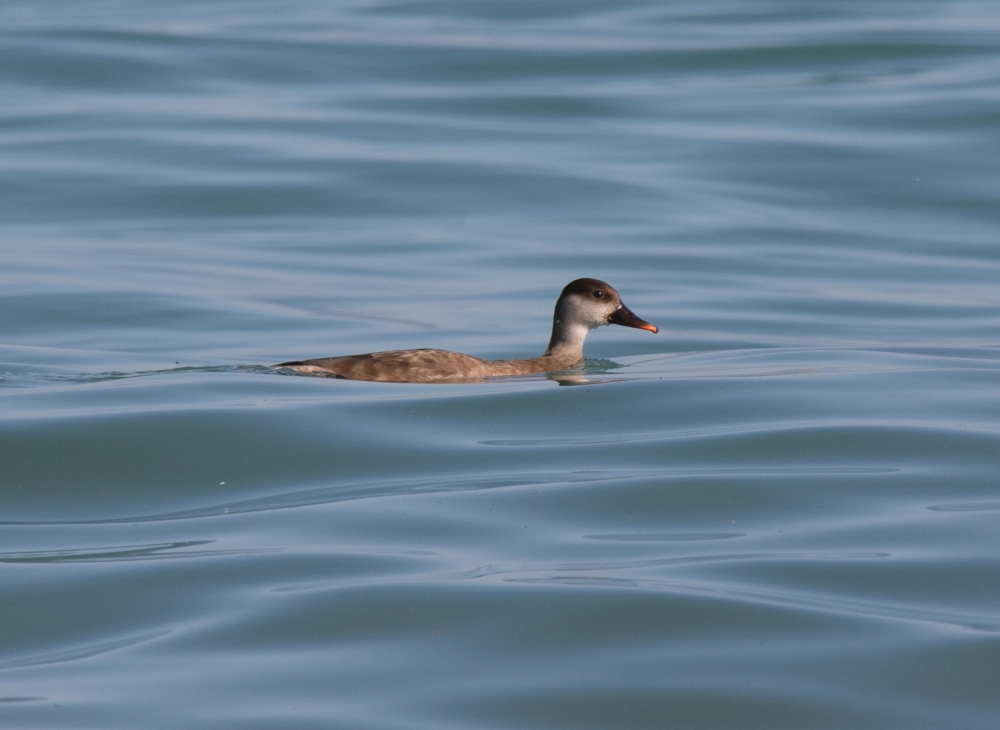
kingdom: Animalia
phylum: Chordata
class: Aves
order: Anseriformes
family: Anatidae
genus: Netta
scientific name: Netta rufina
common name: Red-crested pochard
